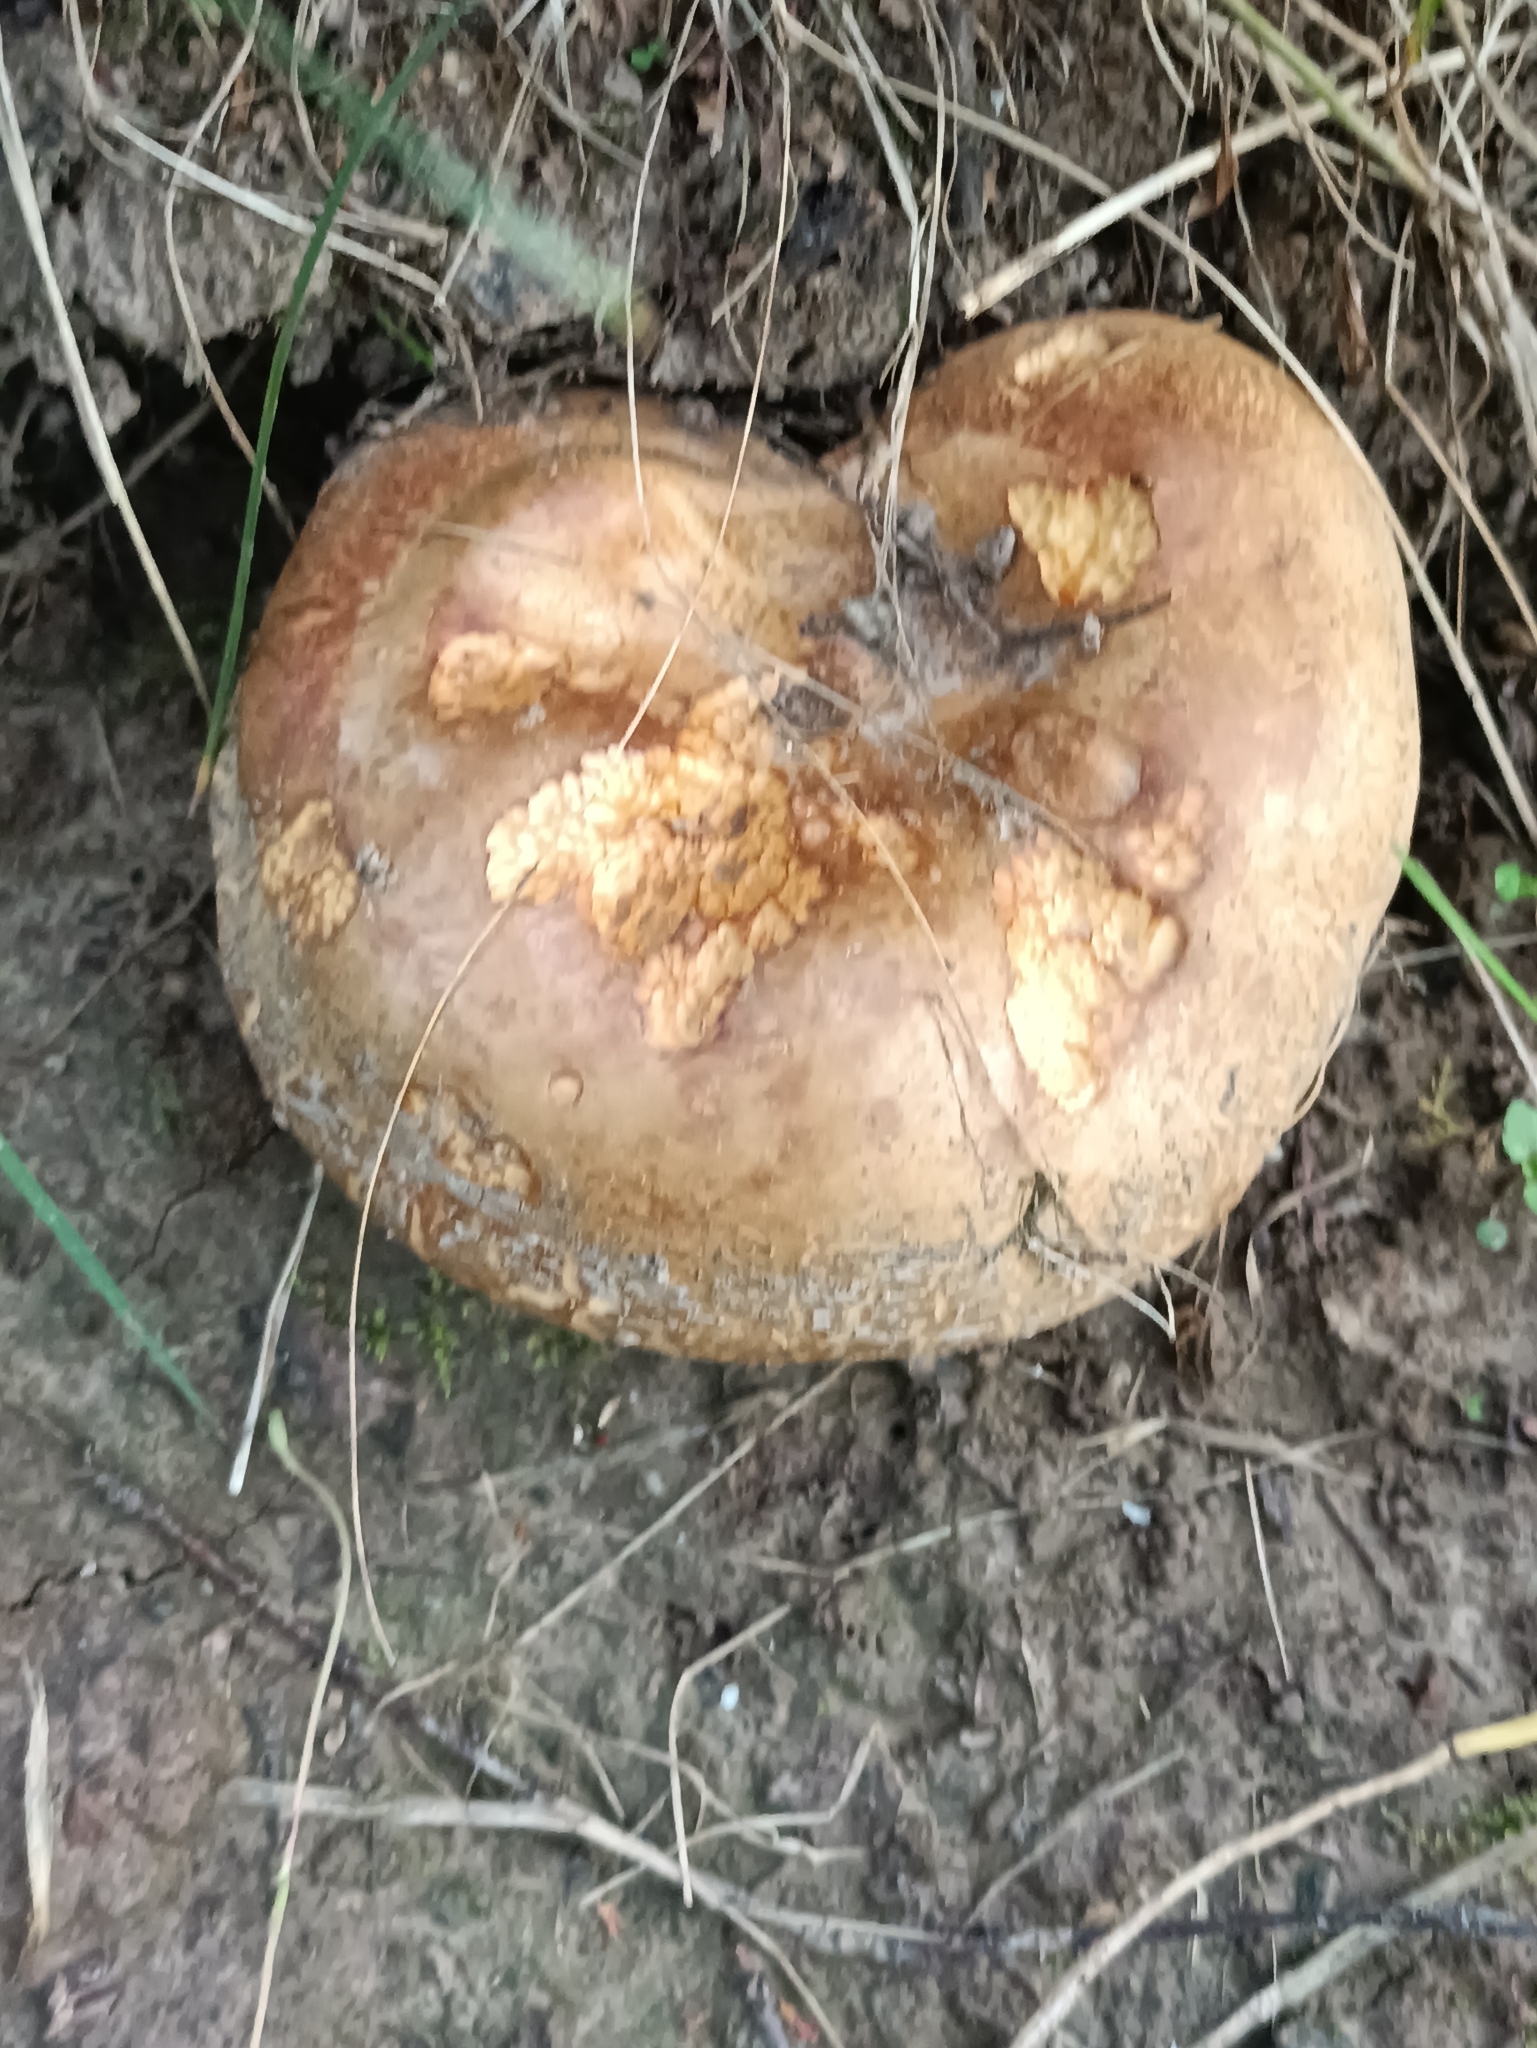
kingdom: Fungi
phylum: Basidiomycota
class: Agaricomycetes
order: Boletales
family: Paxillaceae
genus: Paxillus
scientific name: Paxillus involutus
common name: Brown roll rim
